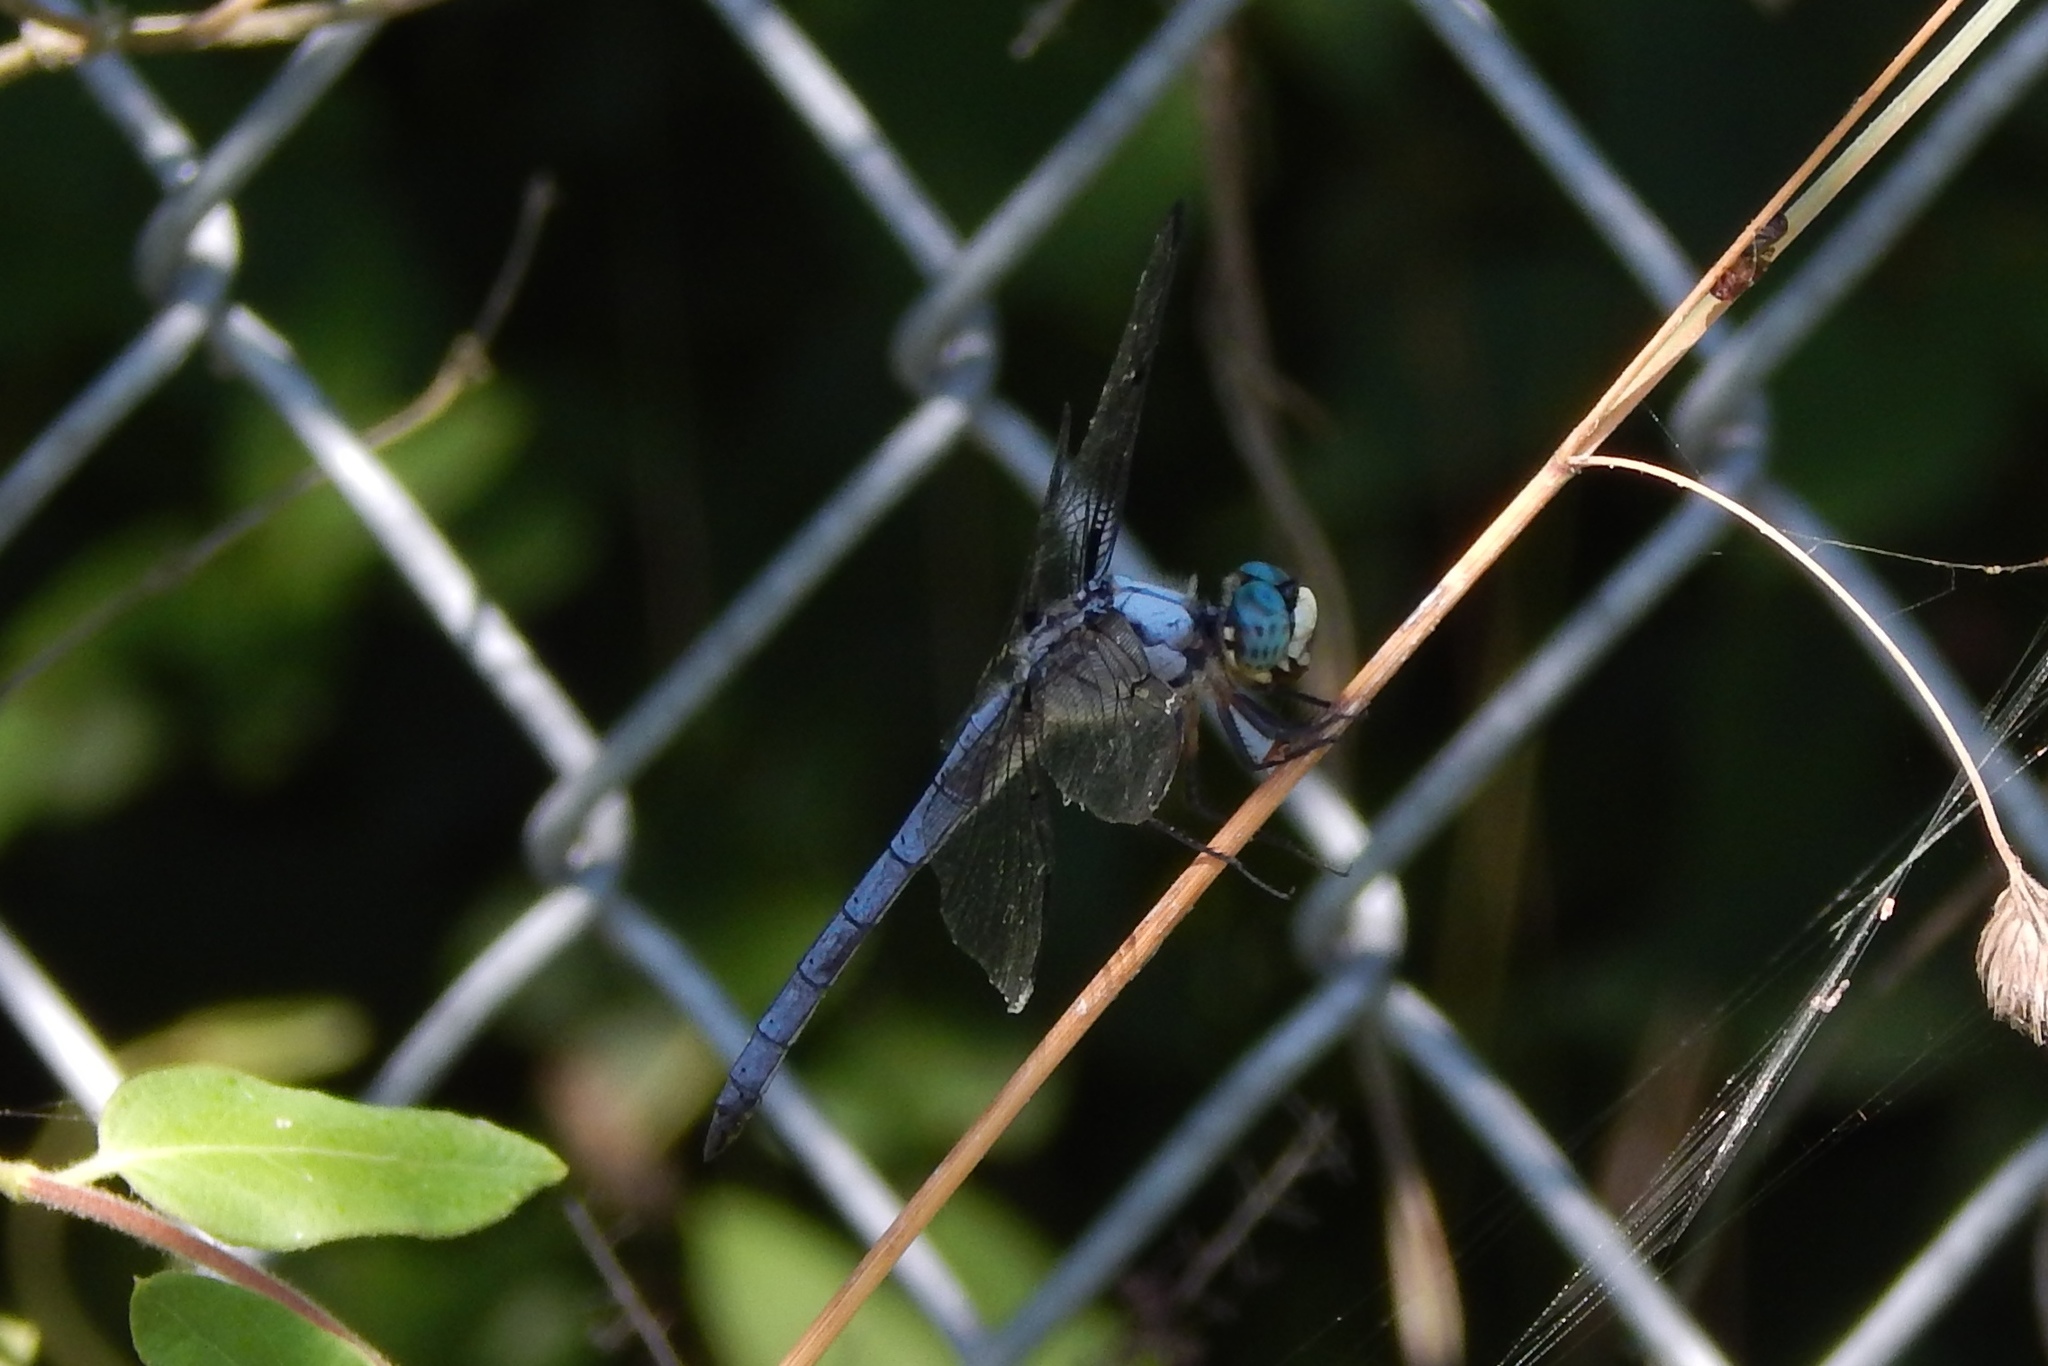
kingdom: Animalia
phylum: Arthropoda
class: Insecta
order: Odonata
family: Libellulidae
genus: Libellula
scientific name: Libellula vibrans
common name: Great blue skimmer
